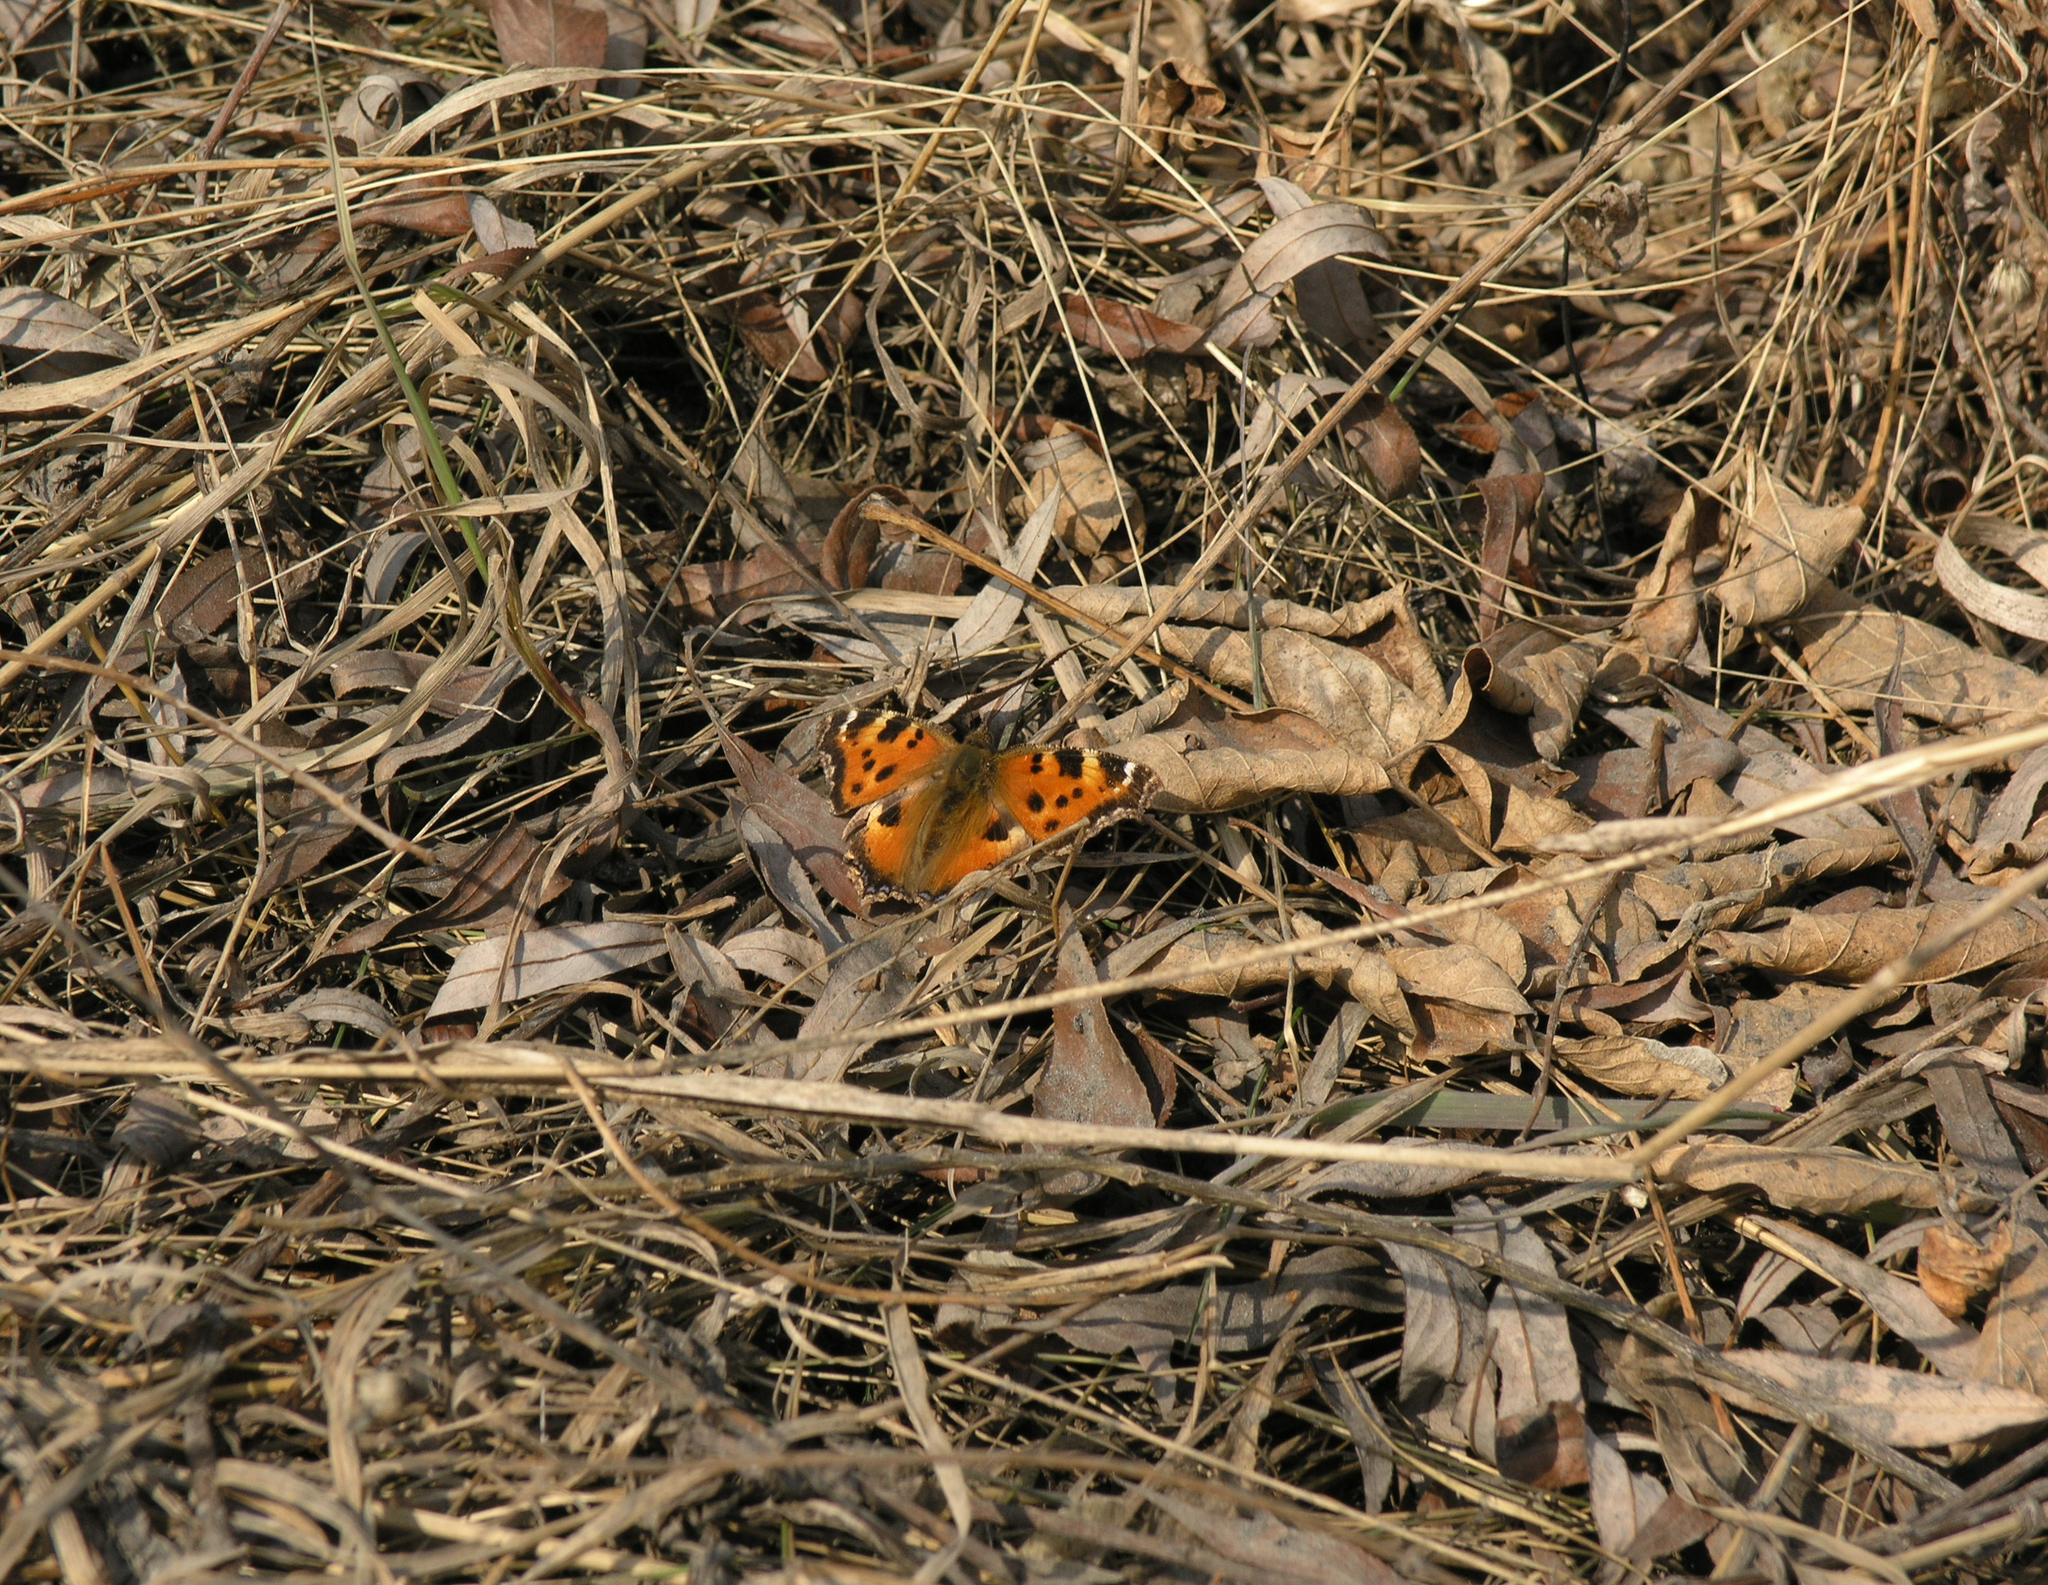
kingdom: Animalia
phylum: Arthropoda
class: Insecta
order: Lepidoptera
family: Nymphalidae
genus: Nymphalis
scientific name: Nymphalis xanthomelas
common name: Scarce tortoiseshell
